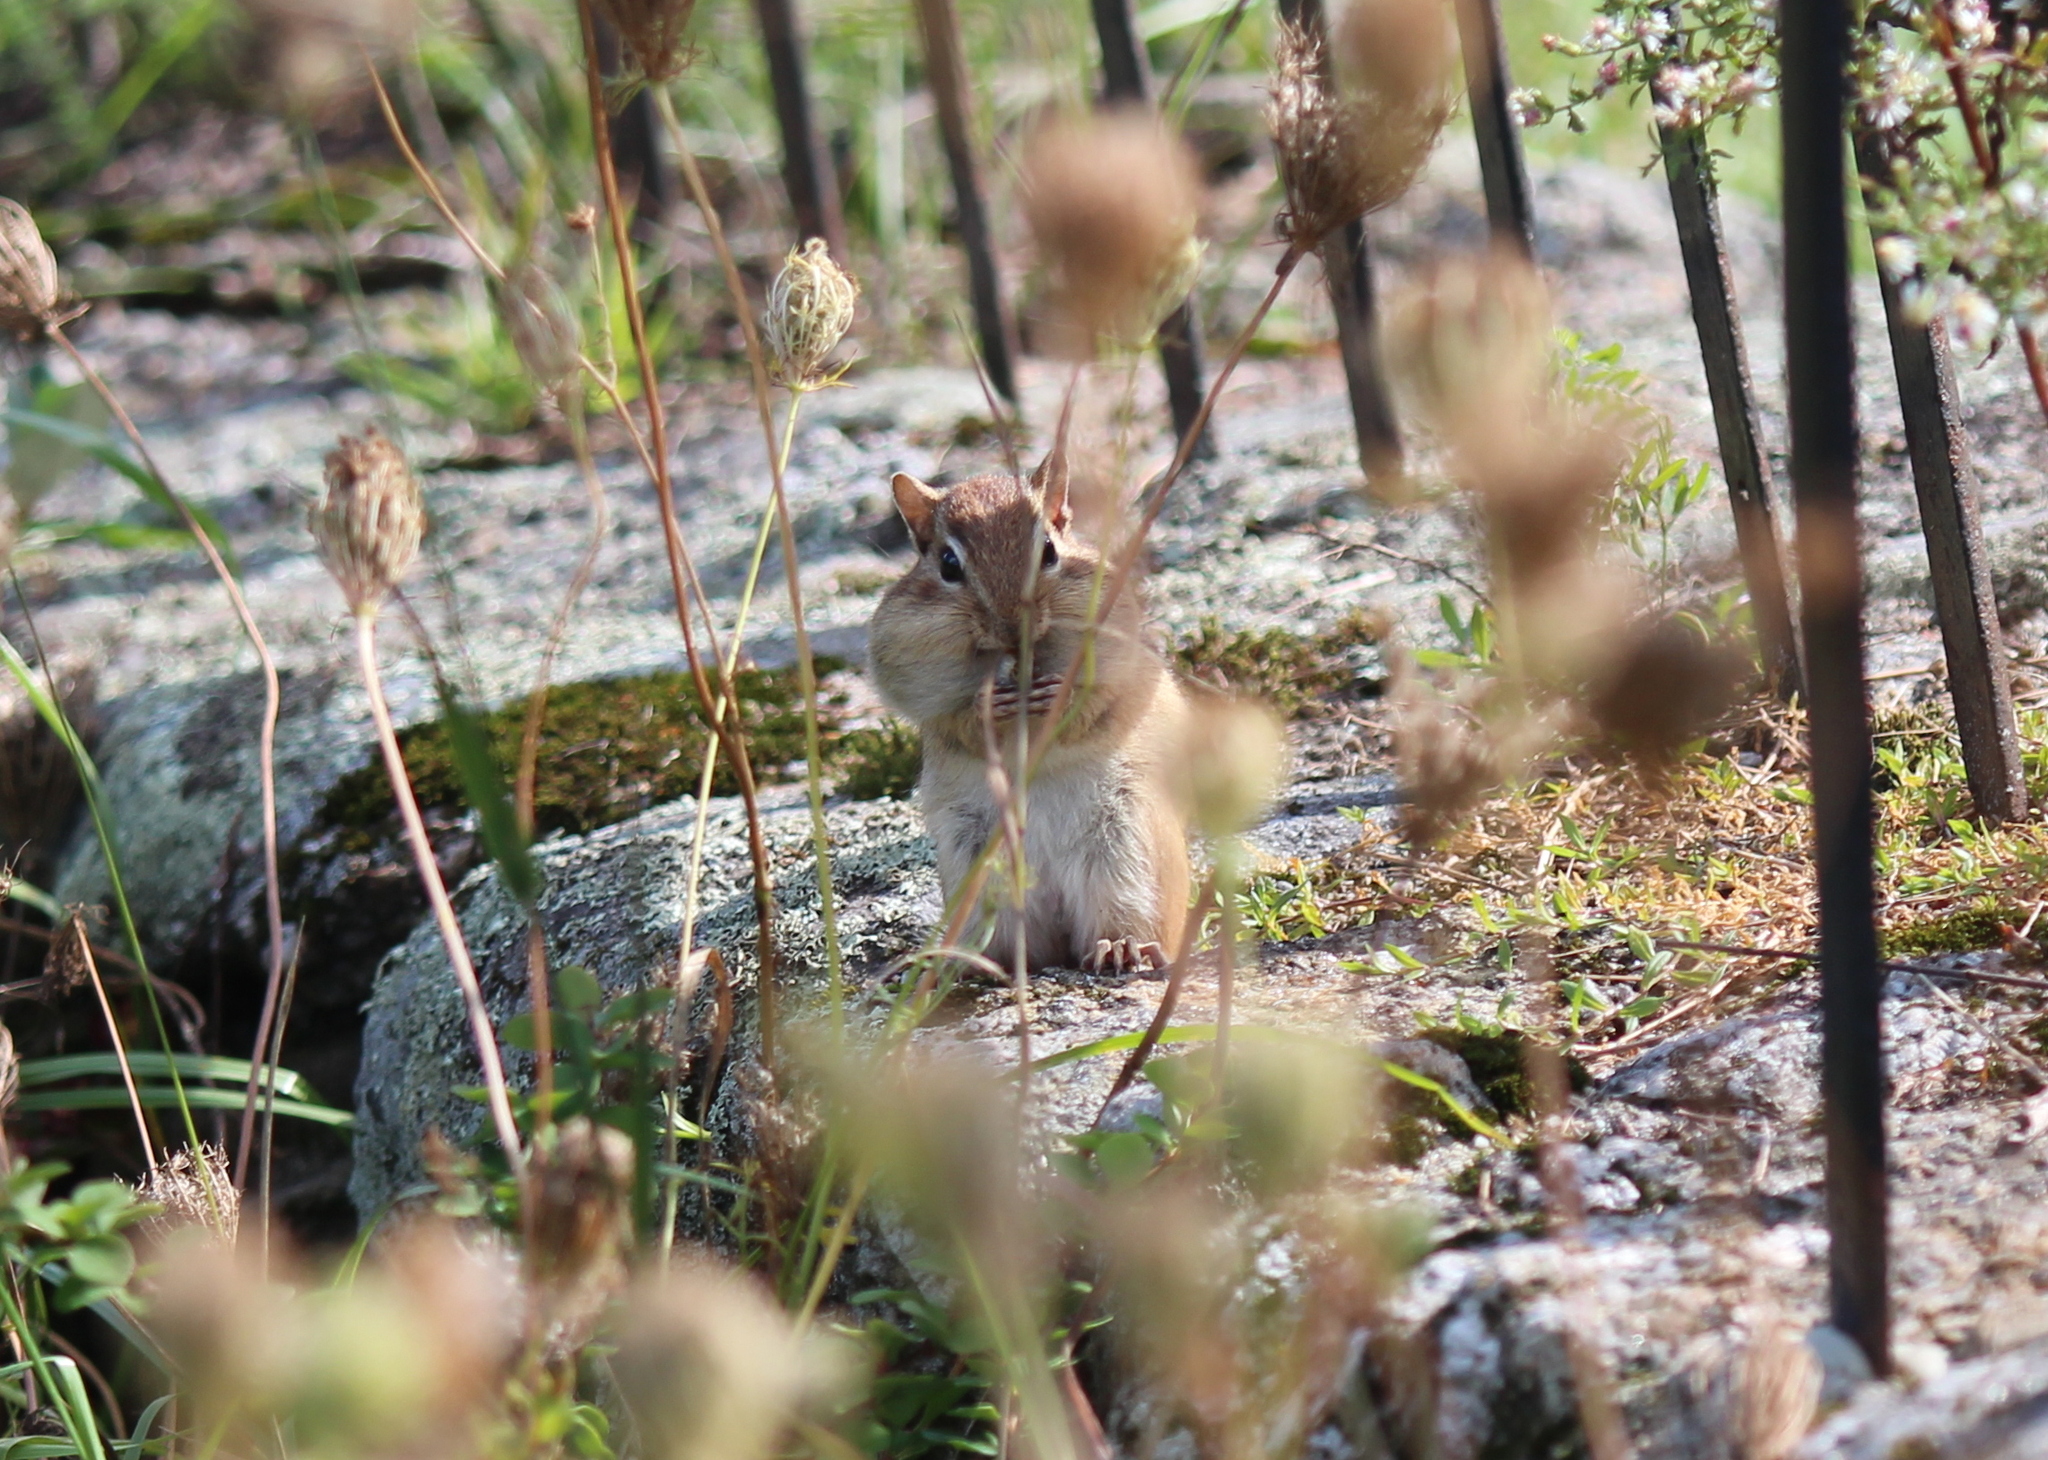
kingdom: Animalia
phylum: Chordata
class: Mammalia
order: Rodentia
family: Sciuridae
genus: Tamias
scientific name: Tamias striatus
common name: Eastern chipmunk
